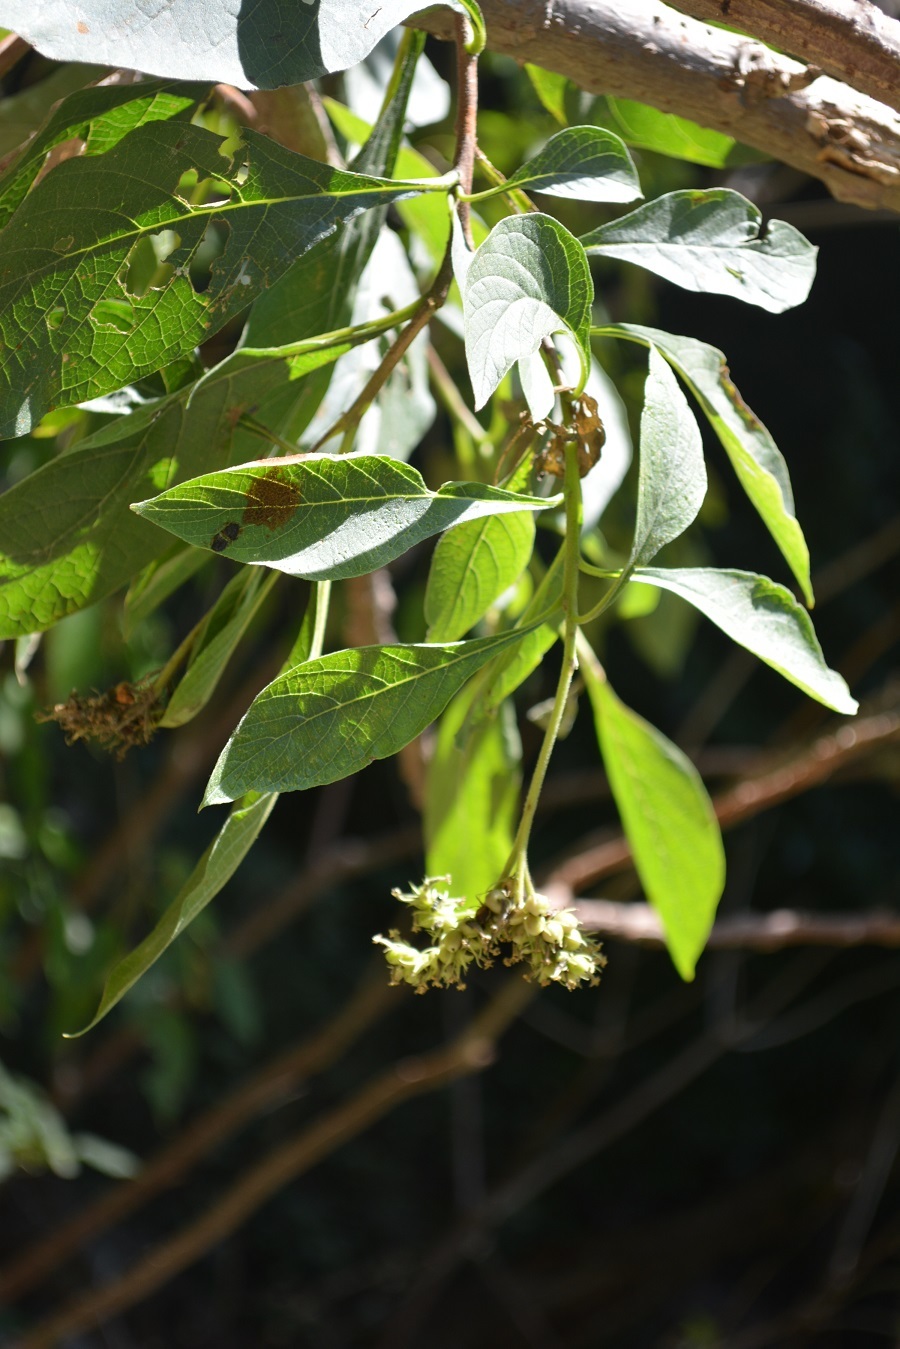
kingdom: Plantae
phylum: Tracheophyta
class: Magnoliopsida
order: Boraginales
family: Heliotropiaceae
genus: Heliotropium
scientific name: Heliotropium petiolare
